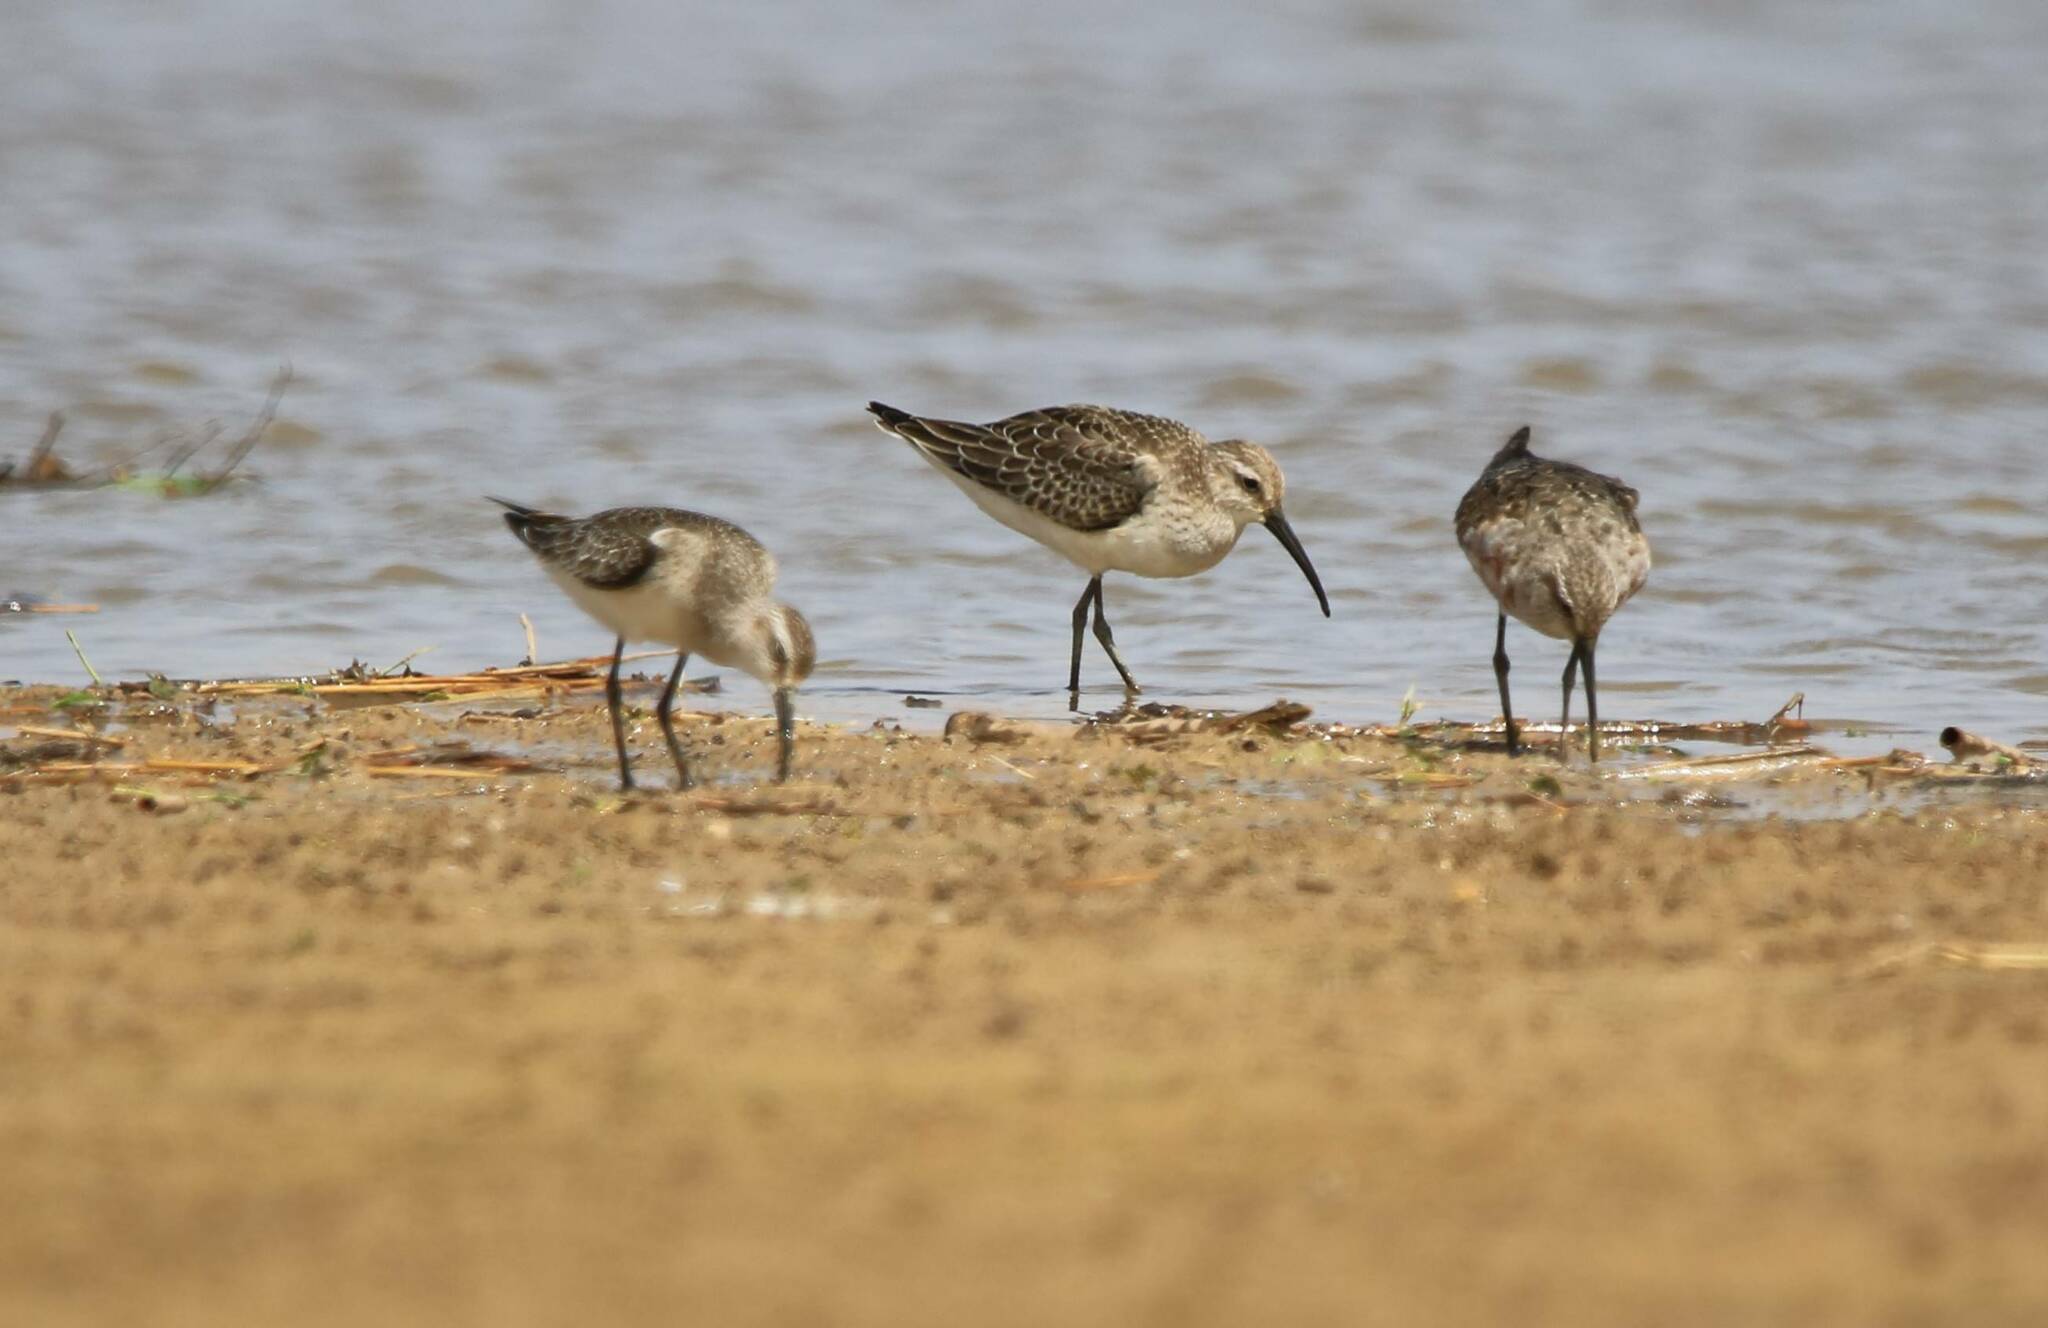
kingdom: Animalia
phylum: Chordata
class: Aves
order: Charadriiformes
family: Scolopacidae
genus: Calidris
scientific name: Calidris ferruginea
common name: Curlew sandpiper
